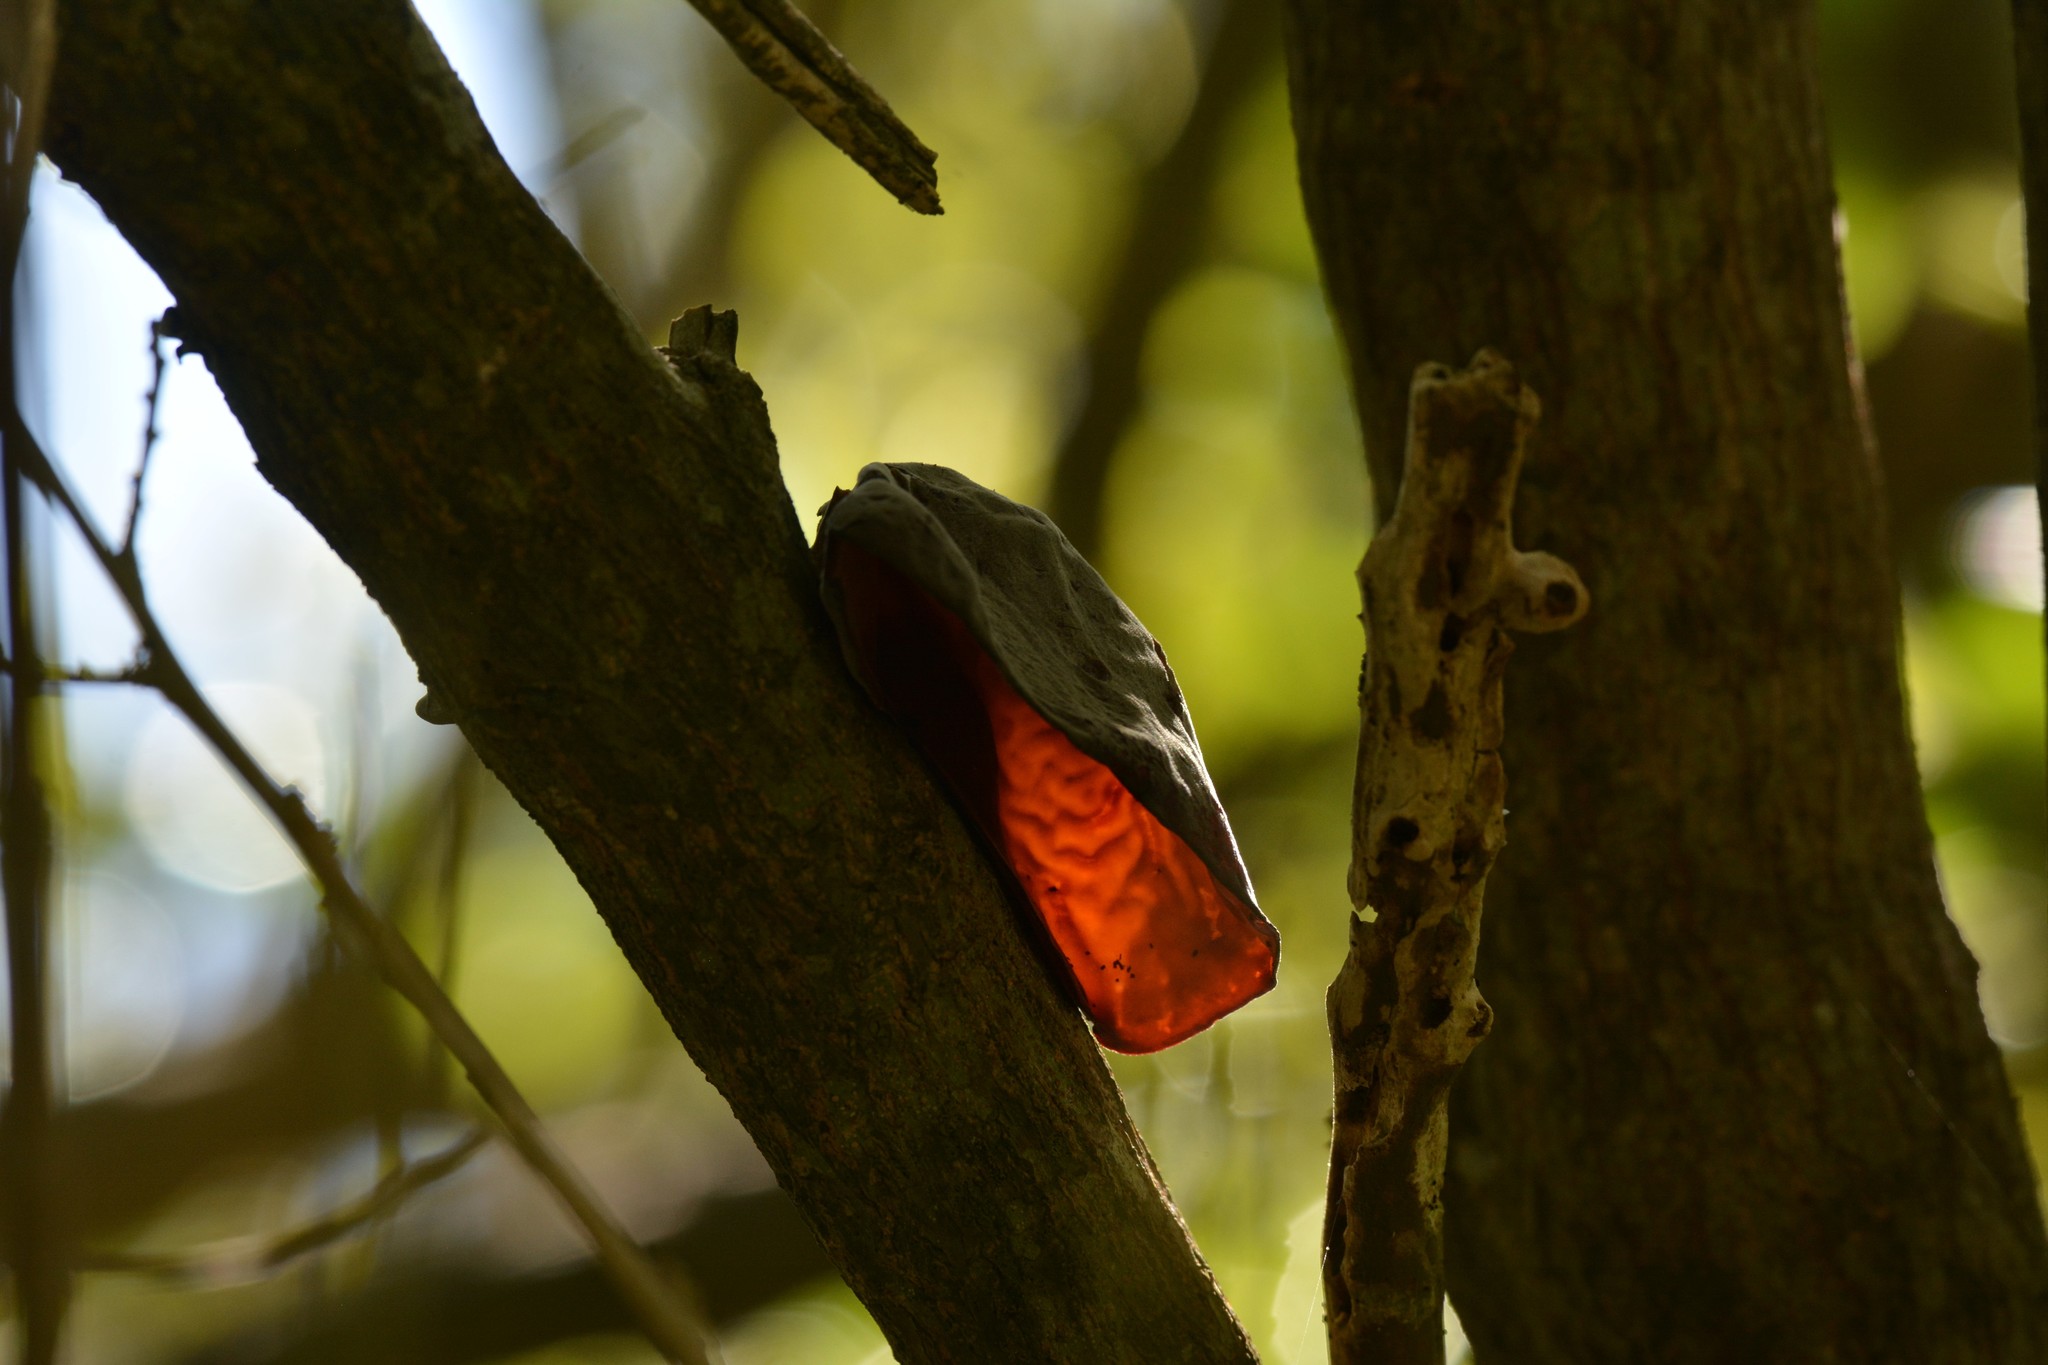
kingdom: Fungi
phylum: Basidiomycota
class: Agaricomycetes
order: Auriculariales
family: Auriculariaceae
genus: Auricularia
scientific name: Auricularia cornea
